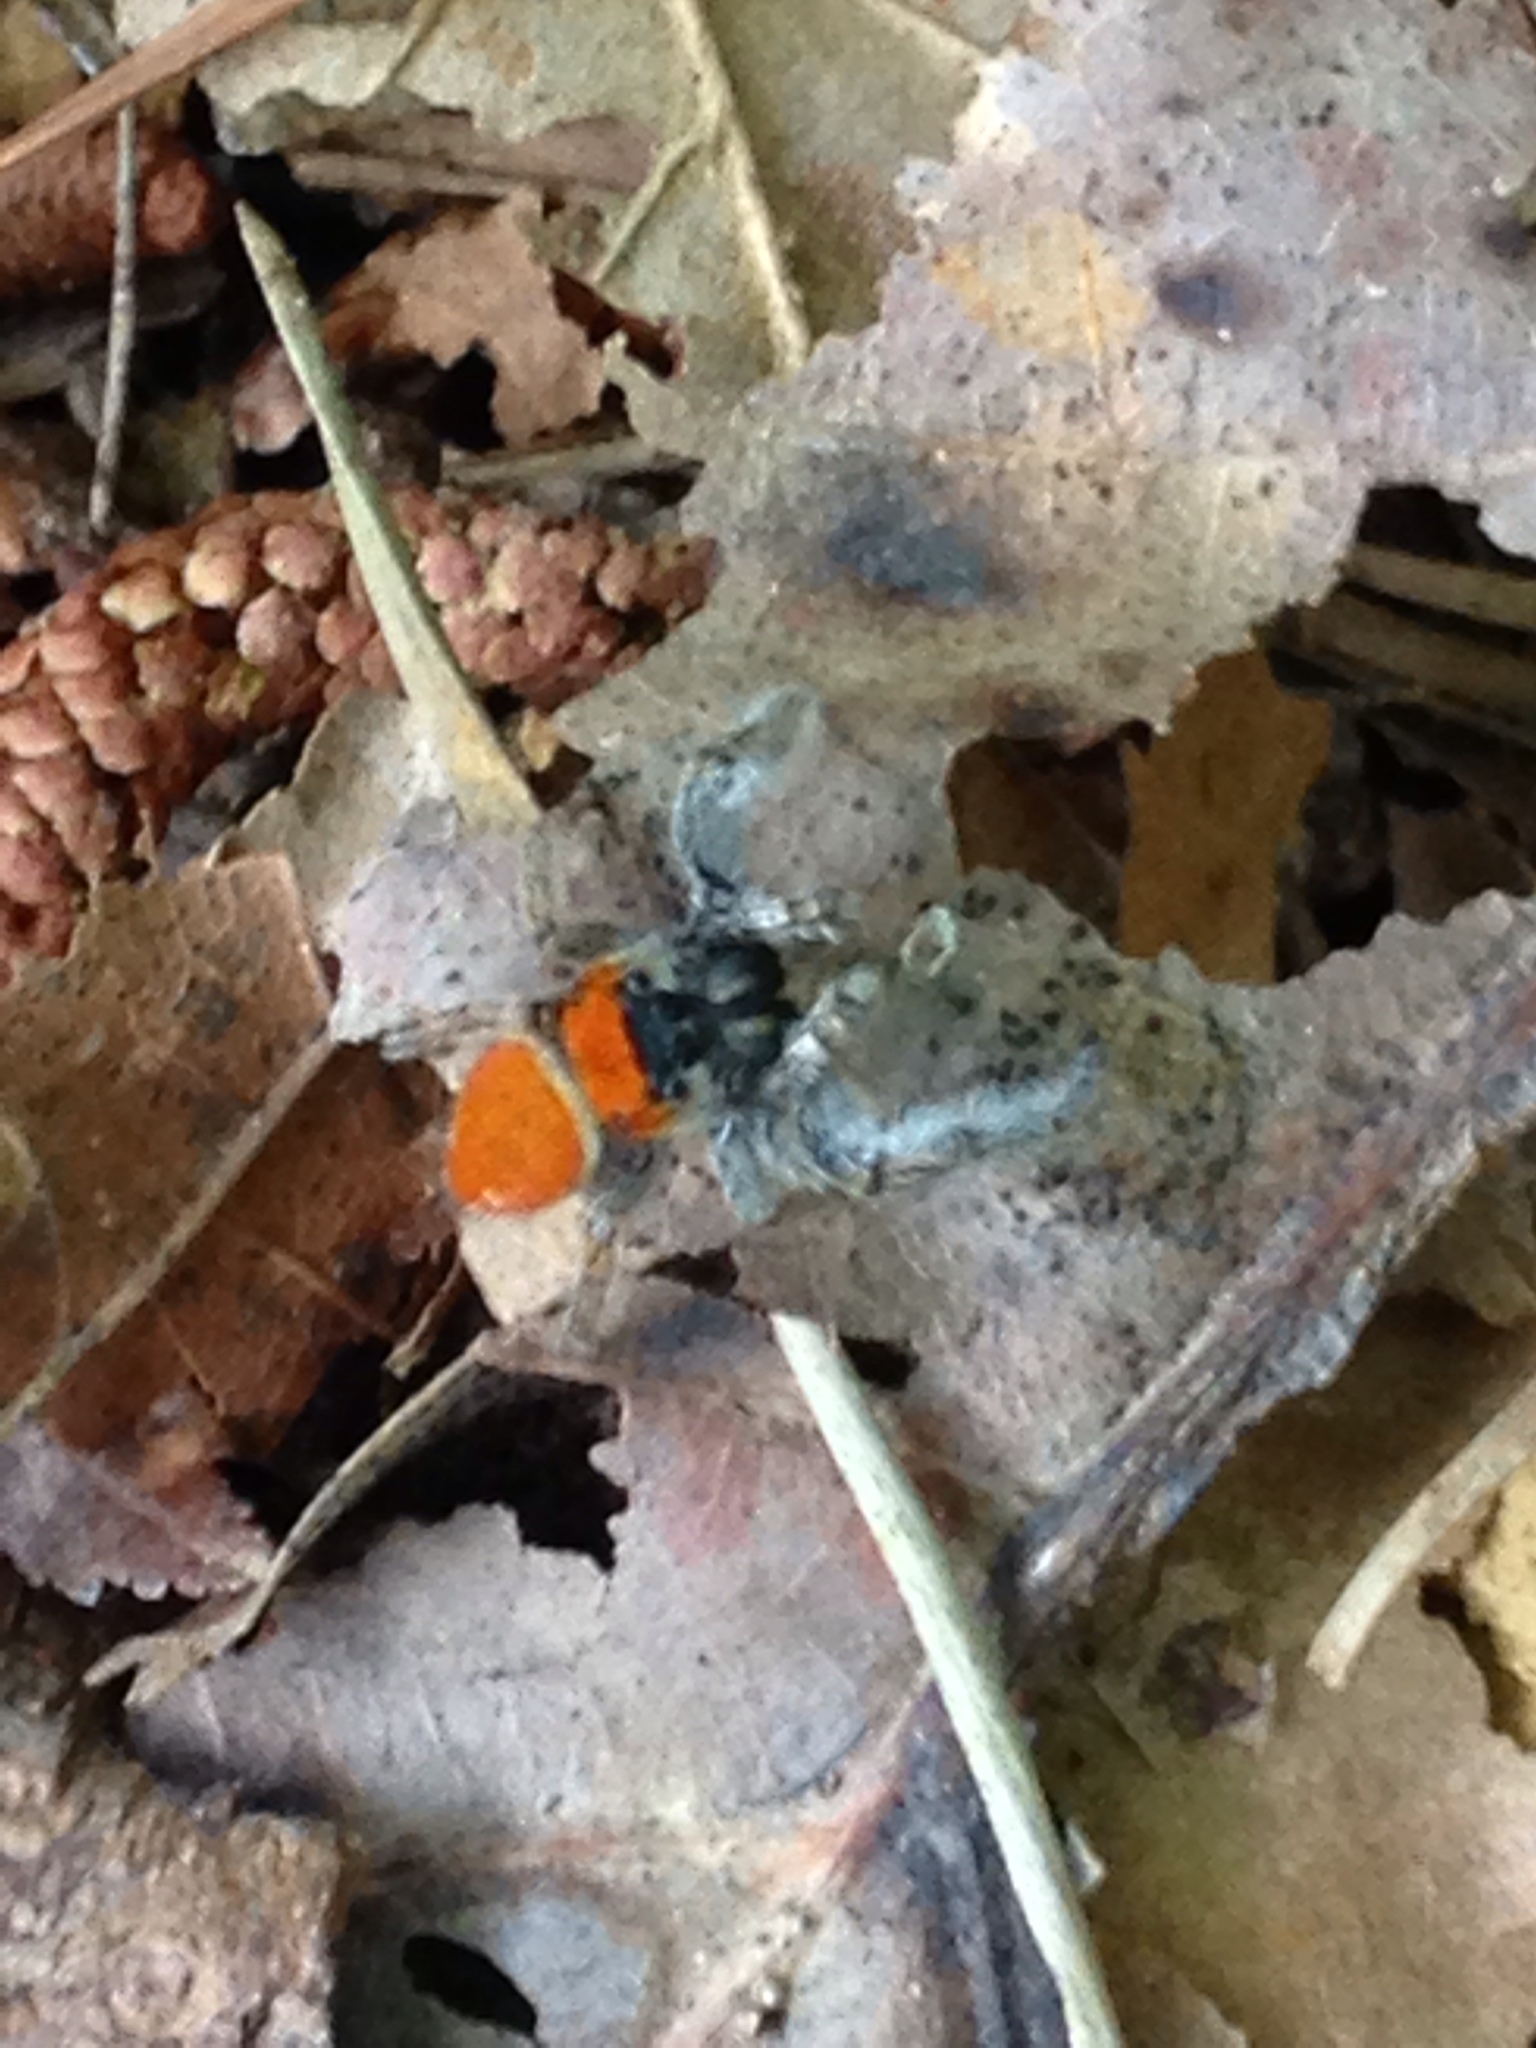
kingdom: Animalia
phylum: Arthropoda
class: Arachnida
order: Araneae
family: Salticidae
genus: Phidippus
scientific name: Phidippus whitmani
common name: Whitman's jumping spider
